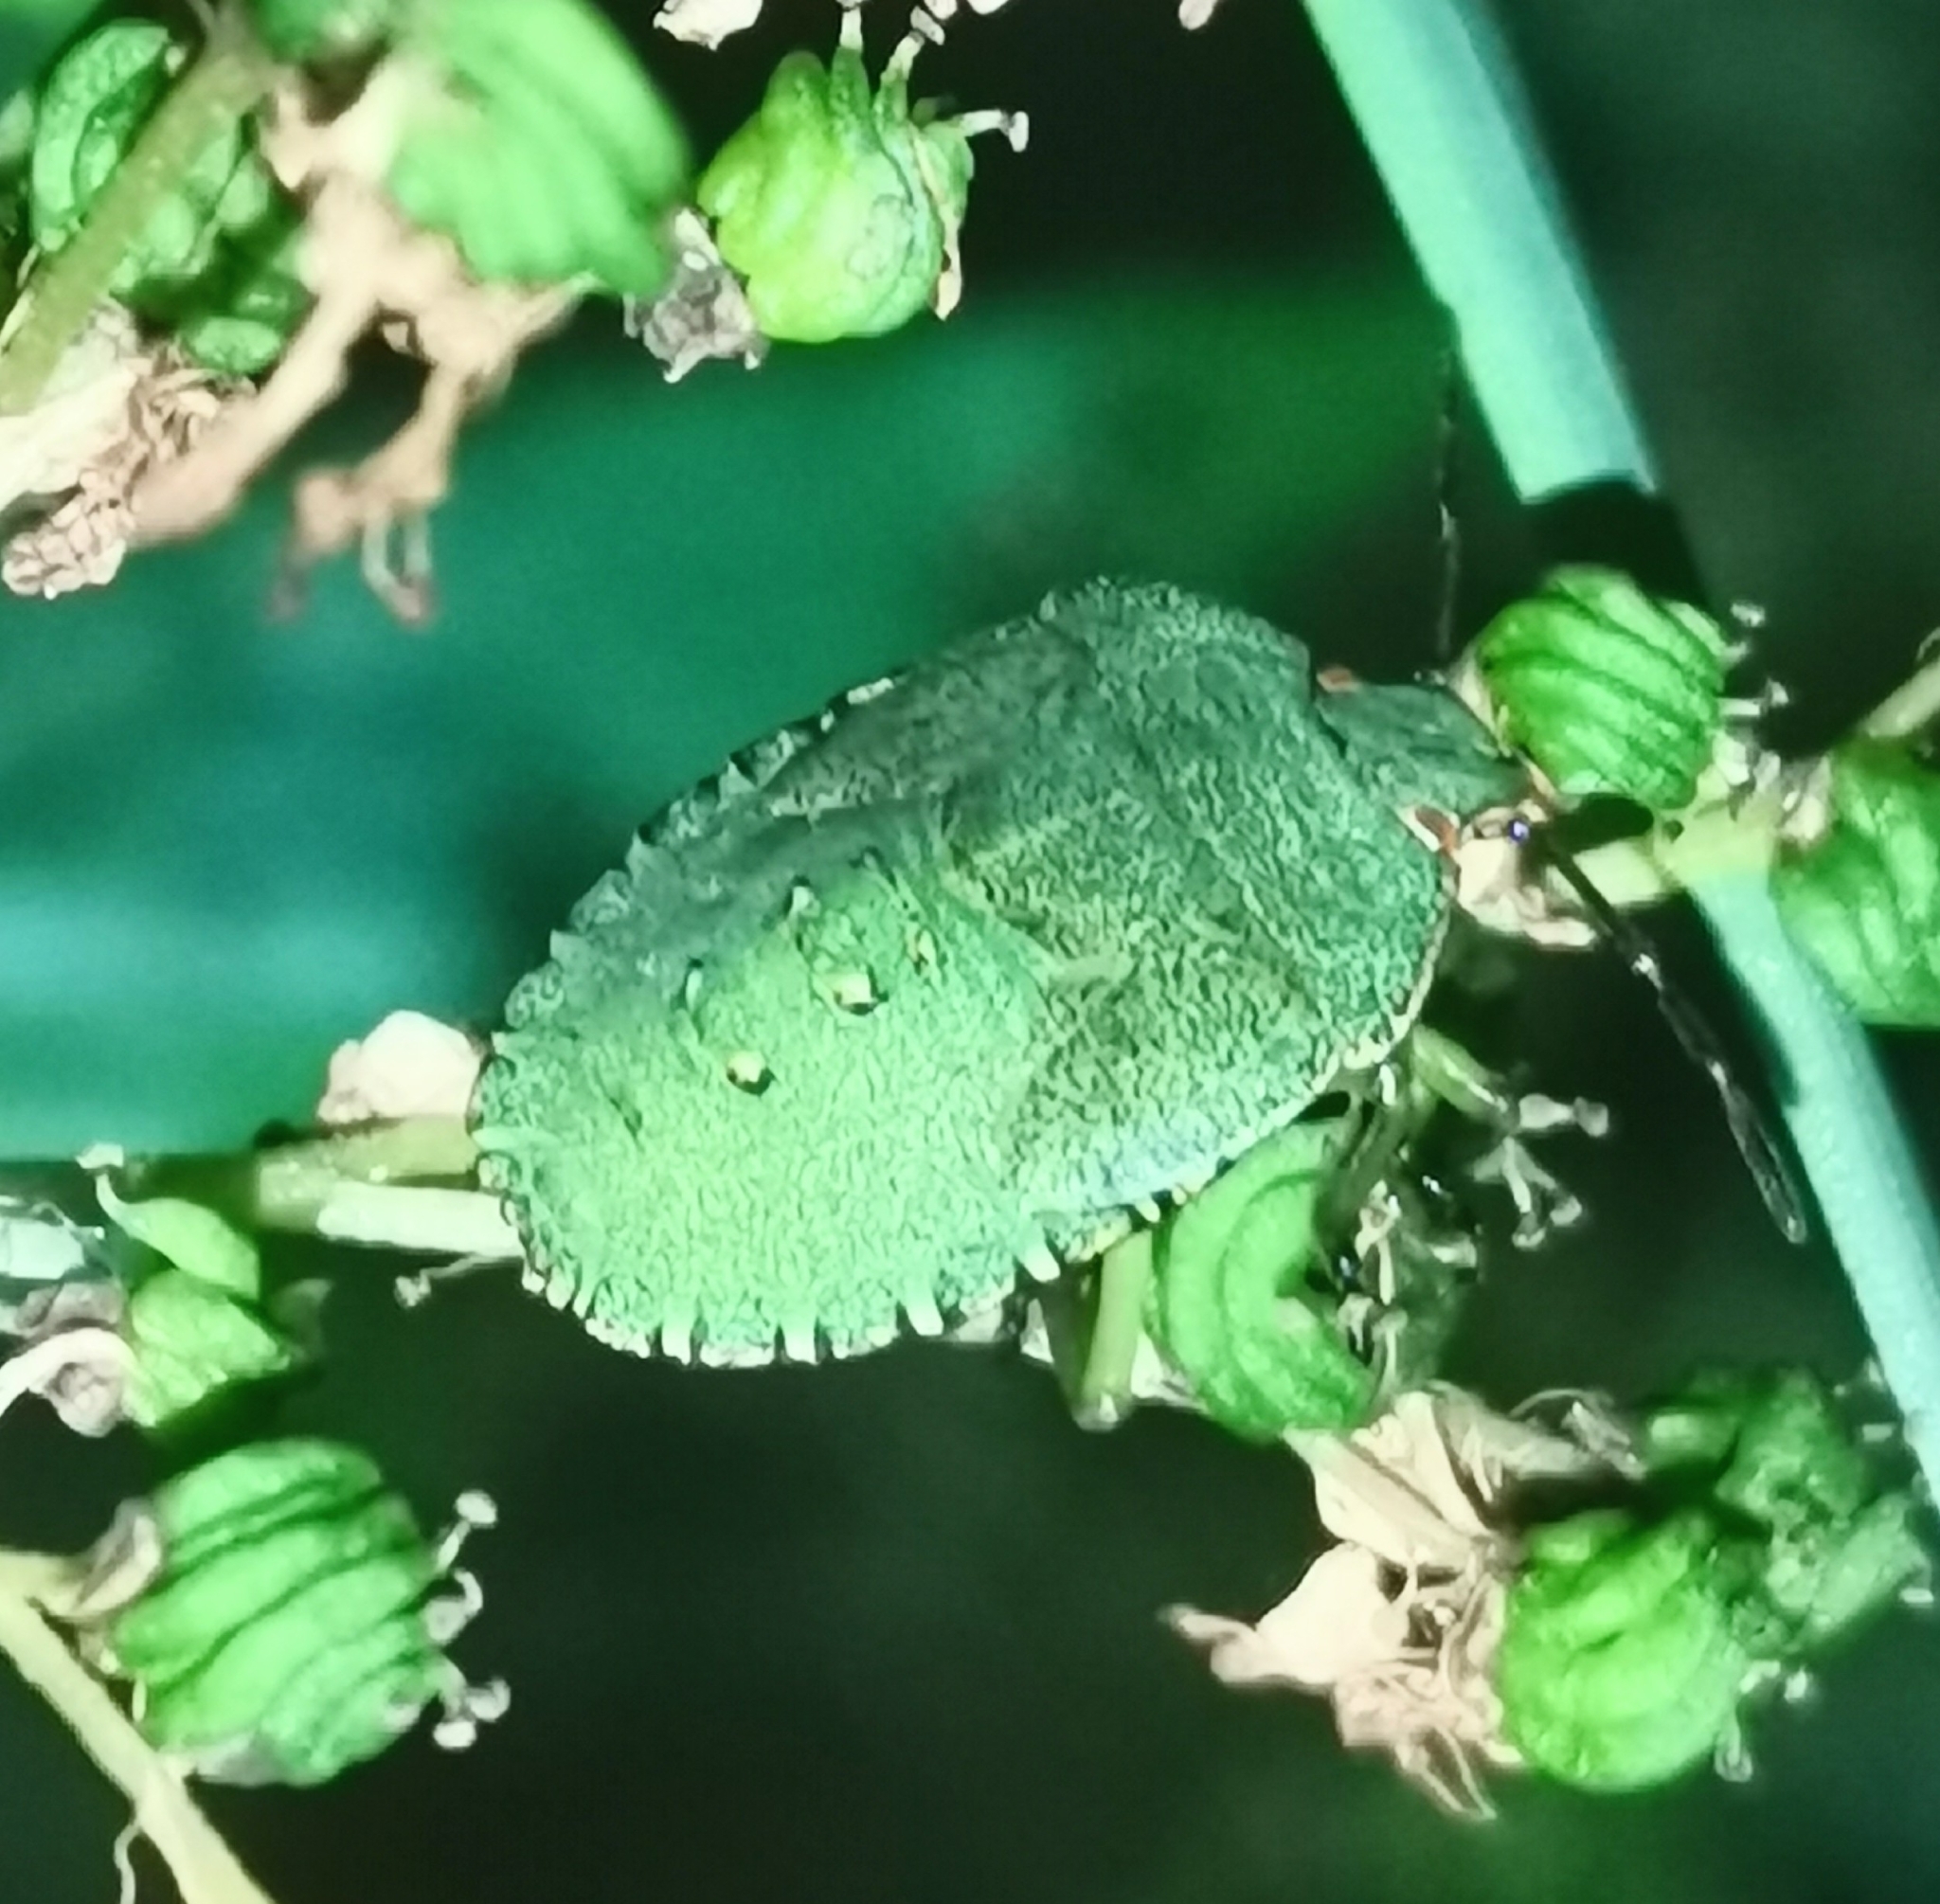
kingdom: Animalia
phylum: Arthropoda
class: Insecta
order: Hemiptera
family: Pentatomidae
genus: Palomena
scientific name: Palomena prasina
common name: Green shieldbug
